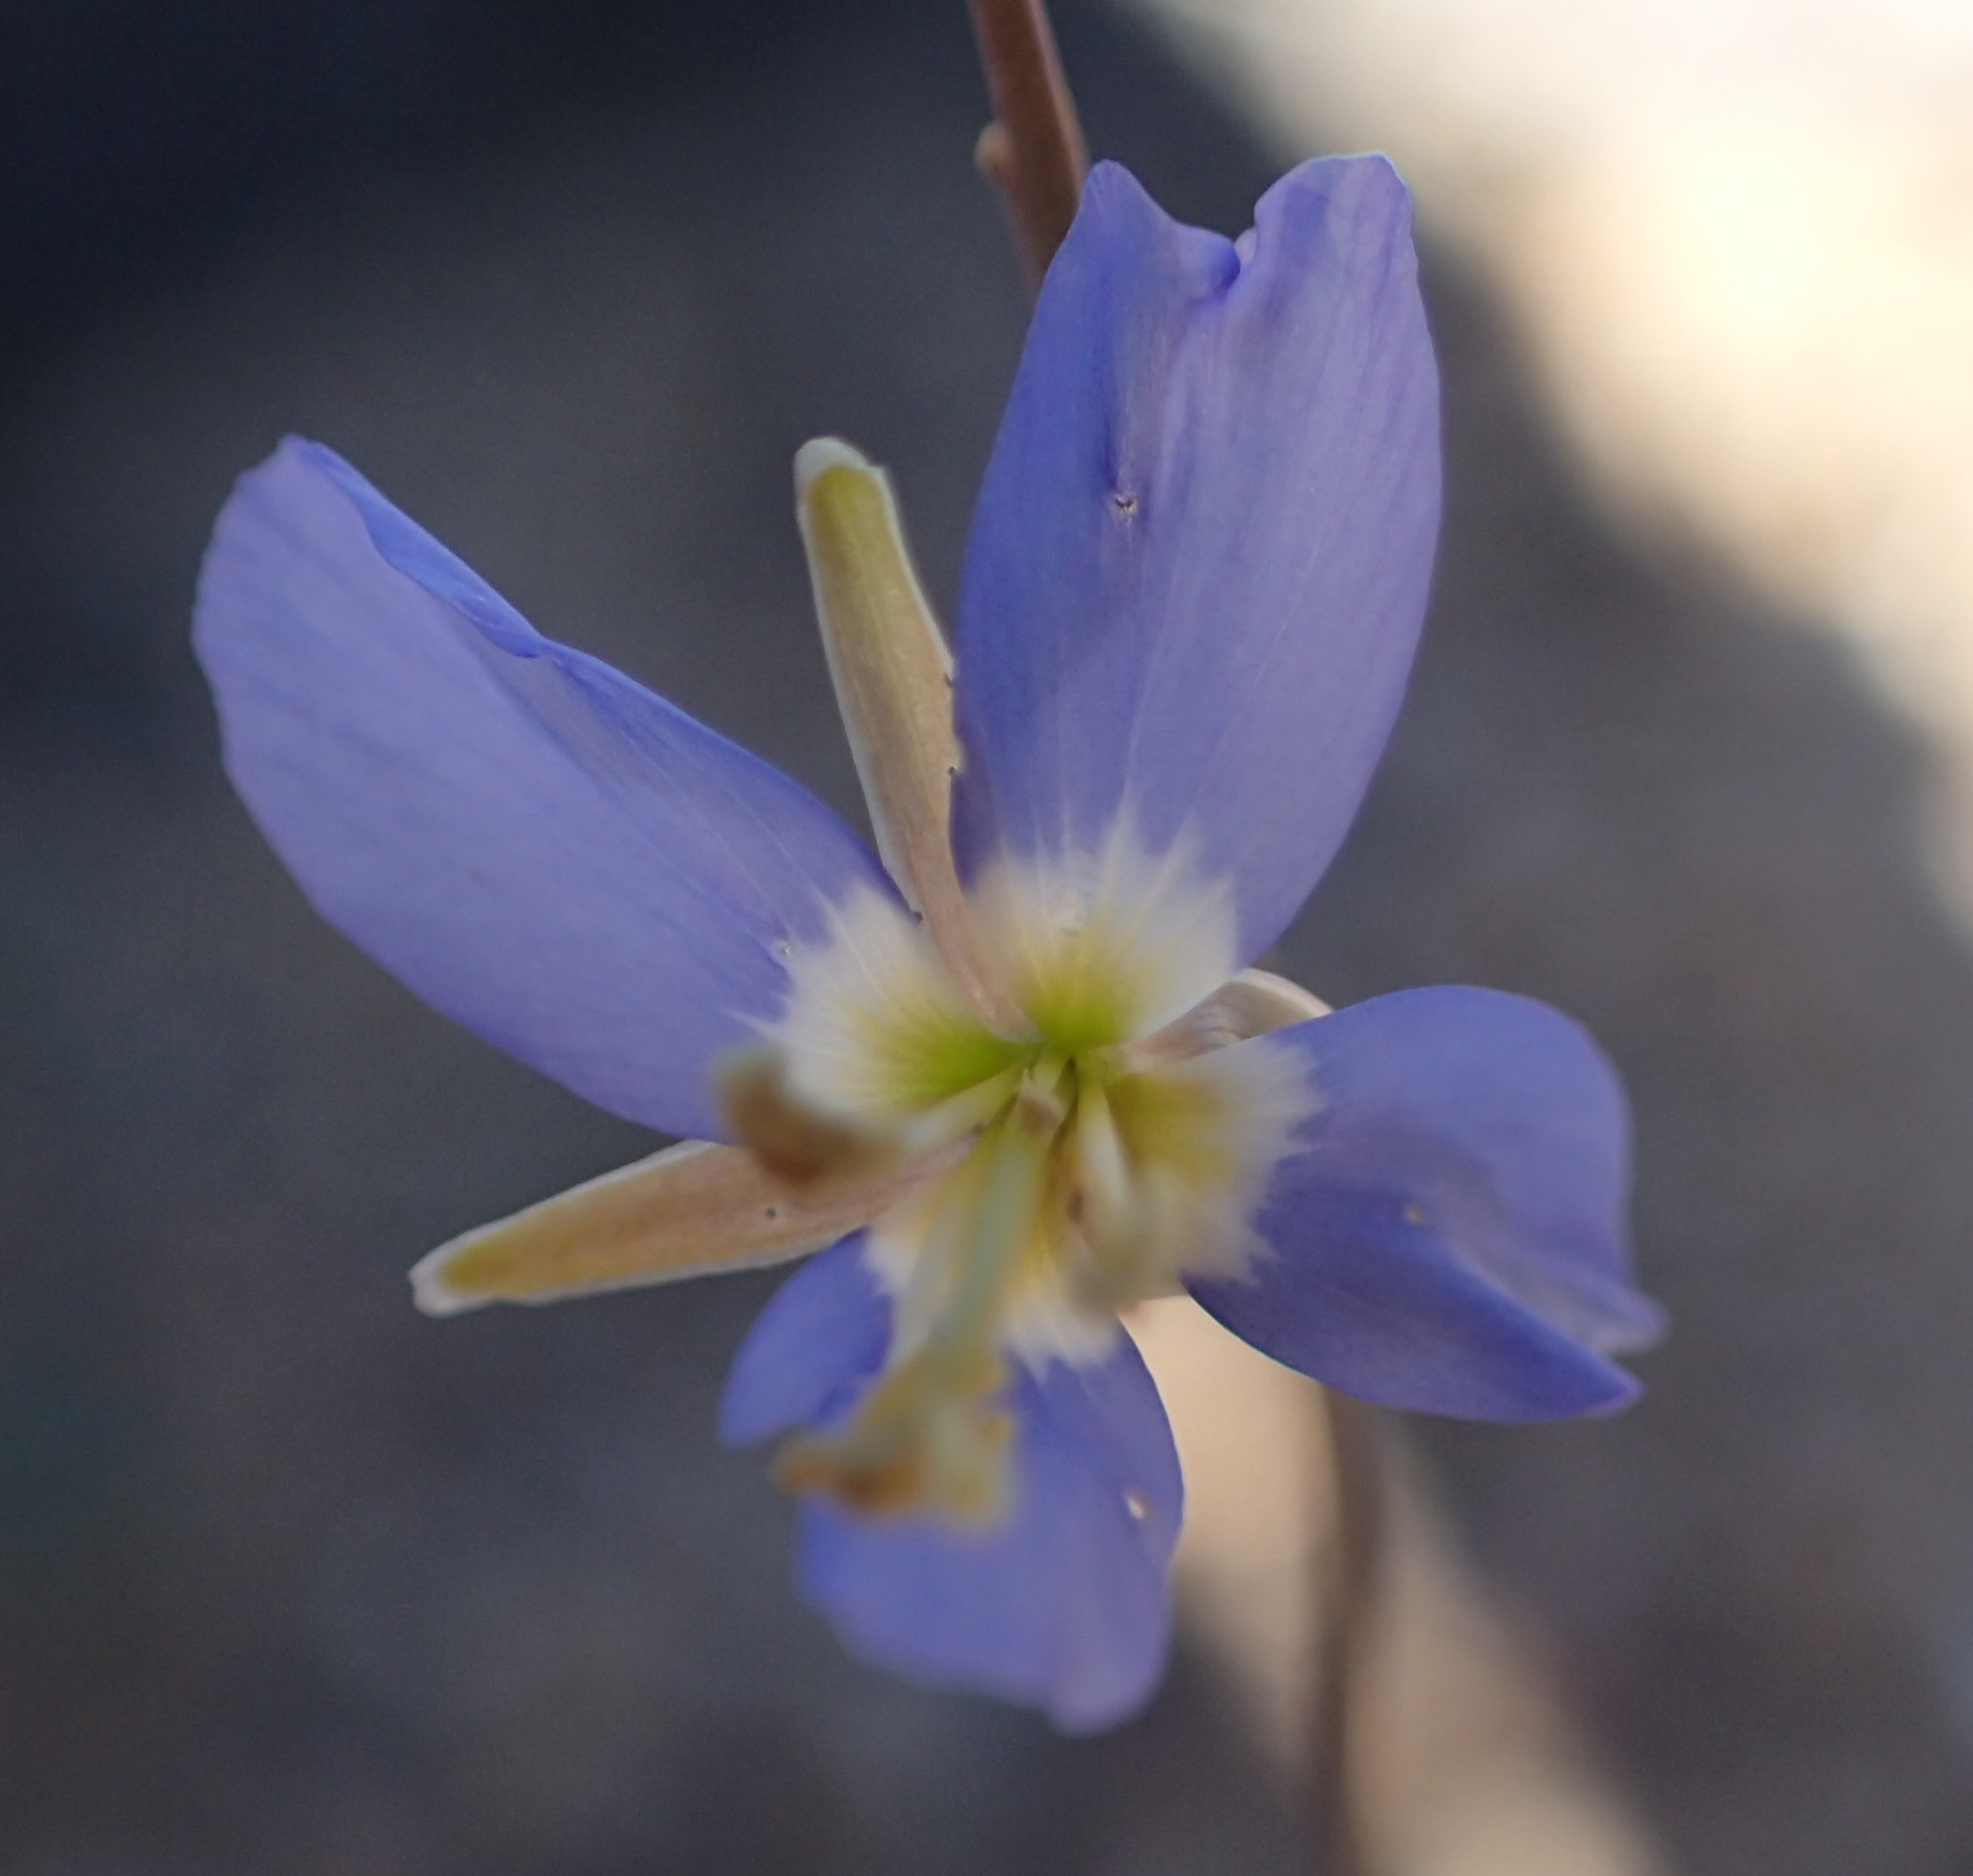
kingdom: Plantae
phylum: Tracheophyta
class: Magnoliopsida
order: Brassicales
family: Brassicaceae
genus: Heliophila
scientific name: Heliophila lactea
